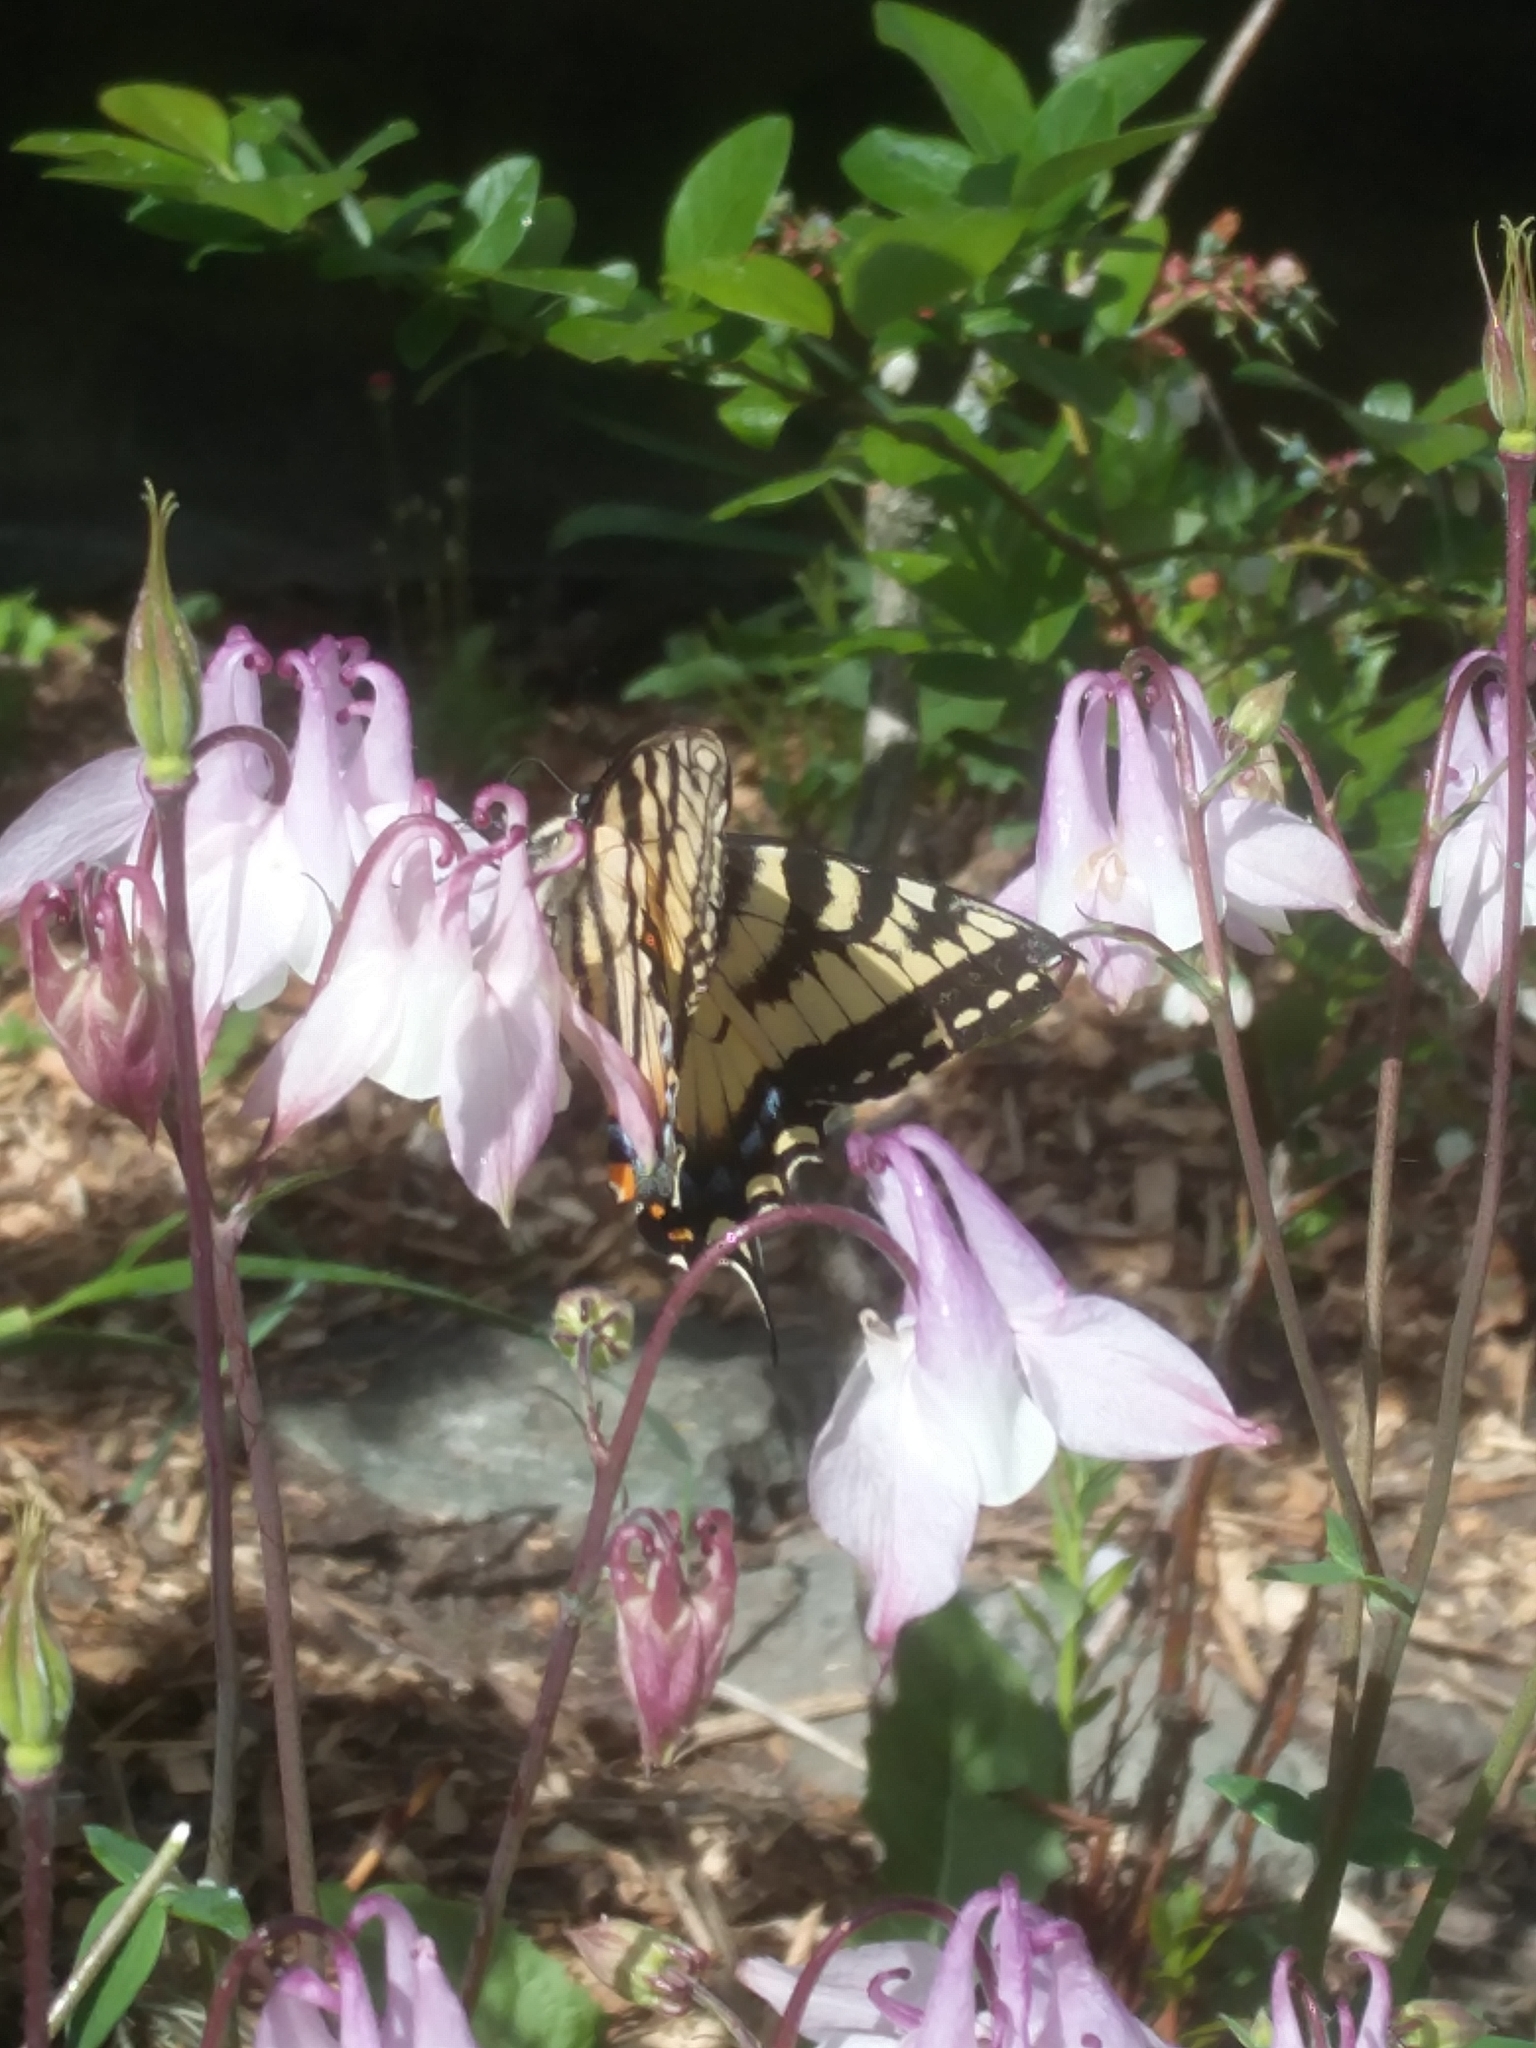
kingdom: Animalia
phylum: Arthropoda
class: Insecta
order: Lepidoptera
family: Papilionidae
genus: Papilio
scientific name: Papilio canadensis
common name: Canadian tiger swallowtail
